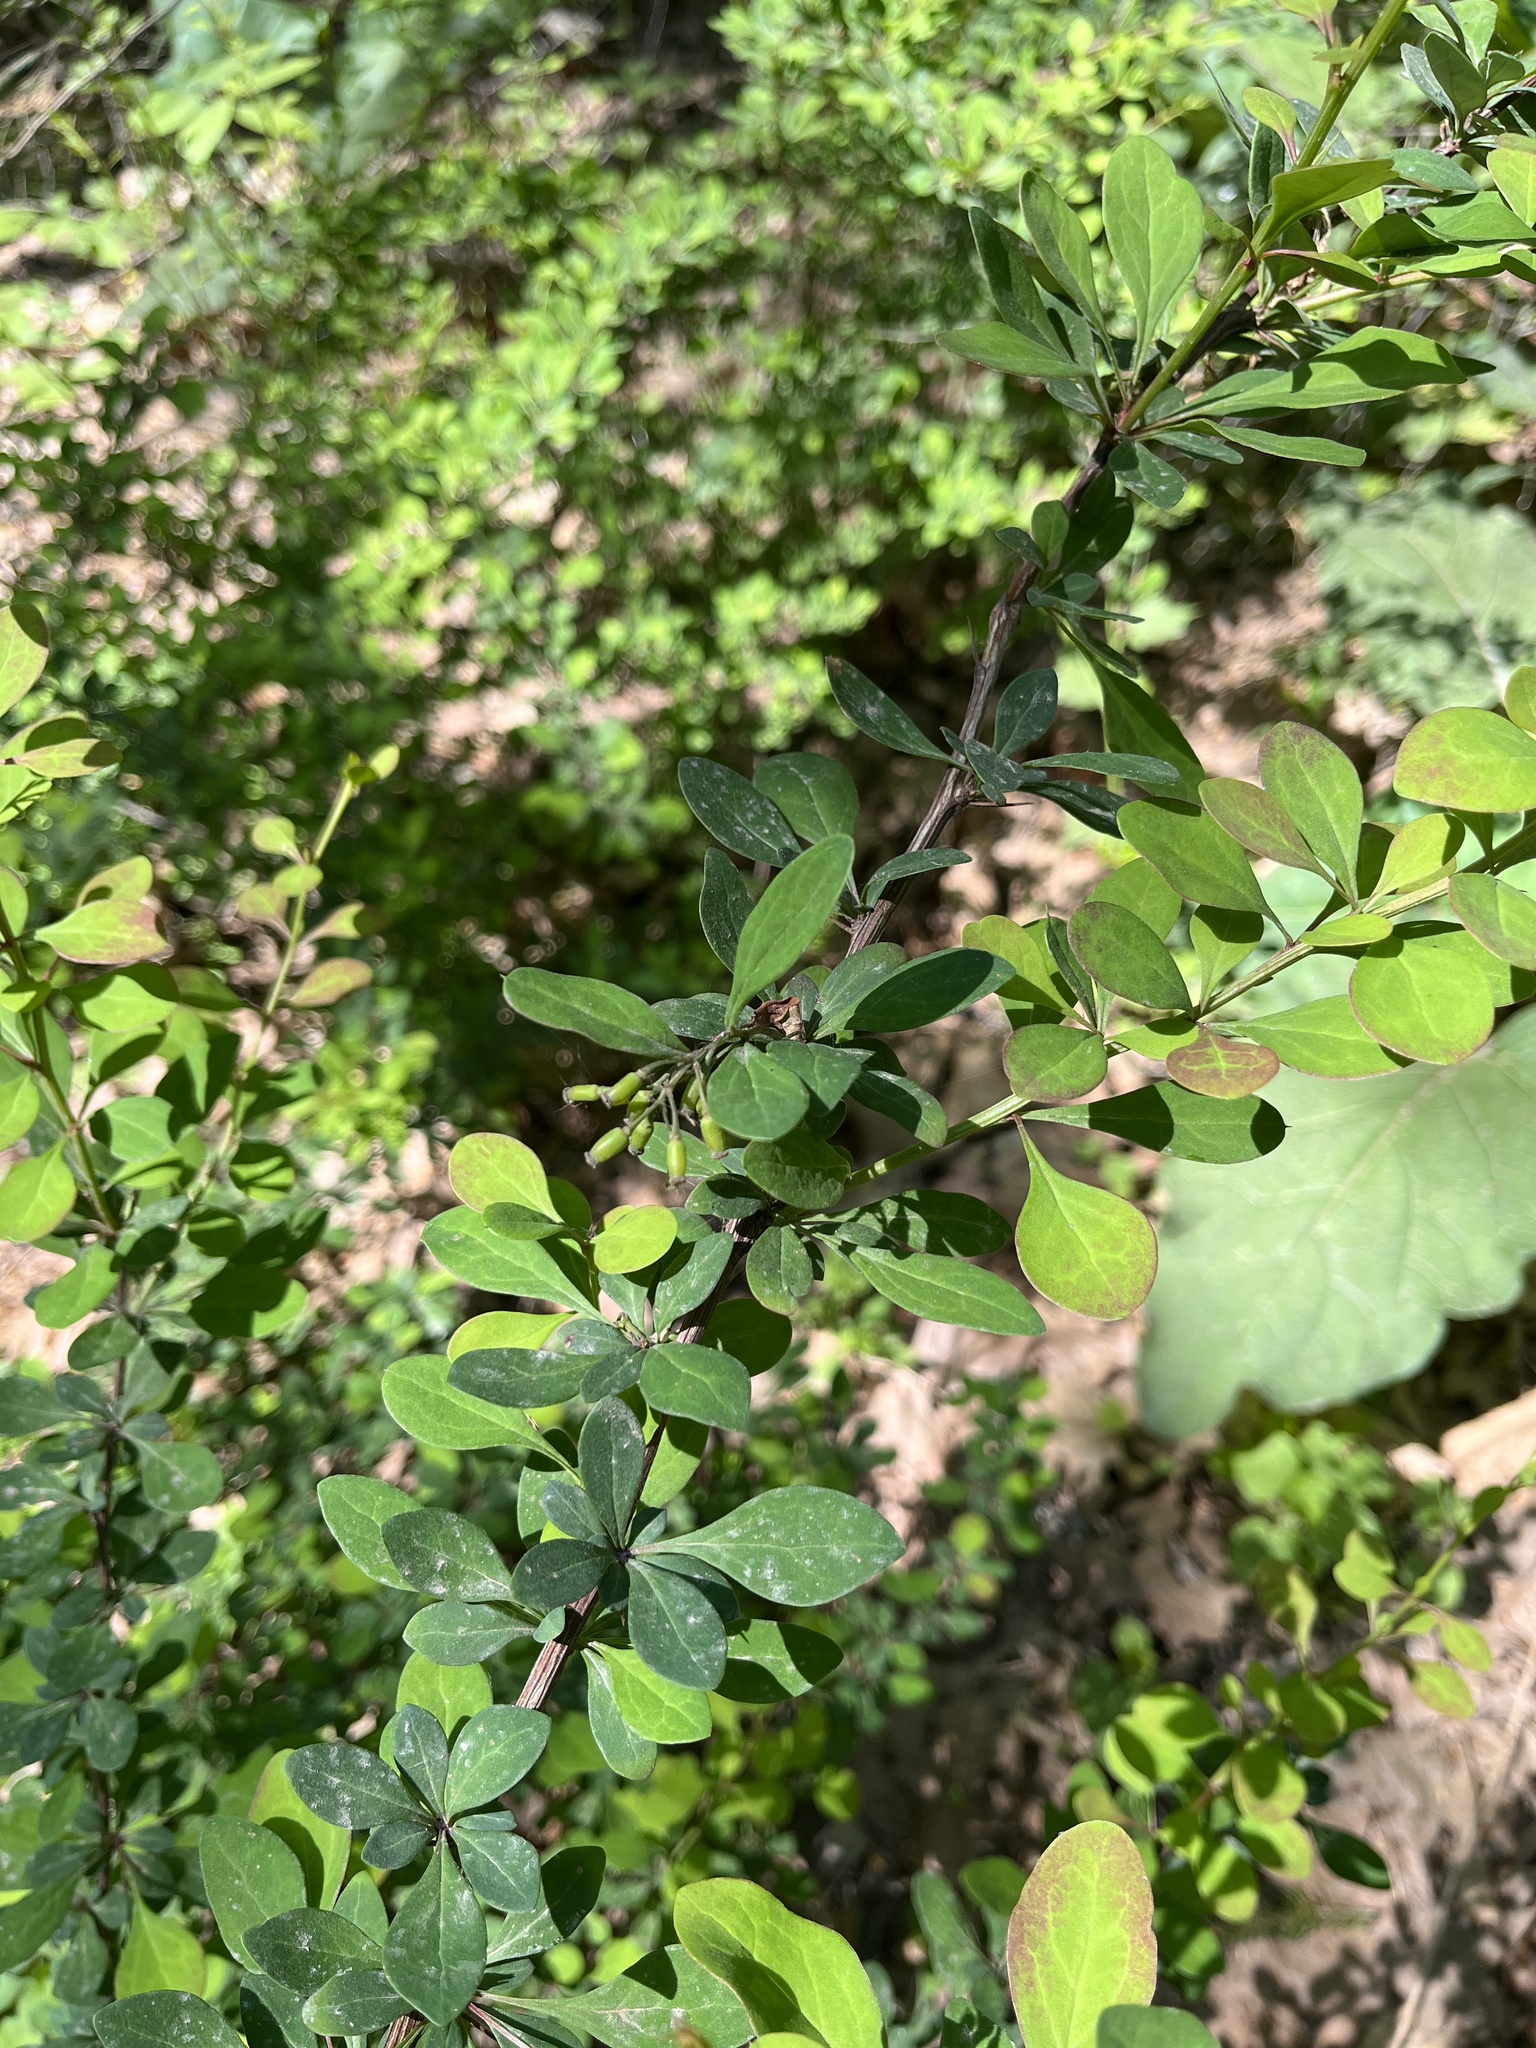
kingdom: Plantae
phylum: Tracheophyta
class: Magnoliopsida
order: Ranunculales
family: Berberidaceae
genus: Berberis
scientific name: Berberis thunbergii
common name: Japanese barberry
